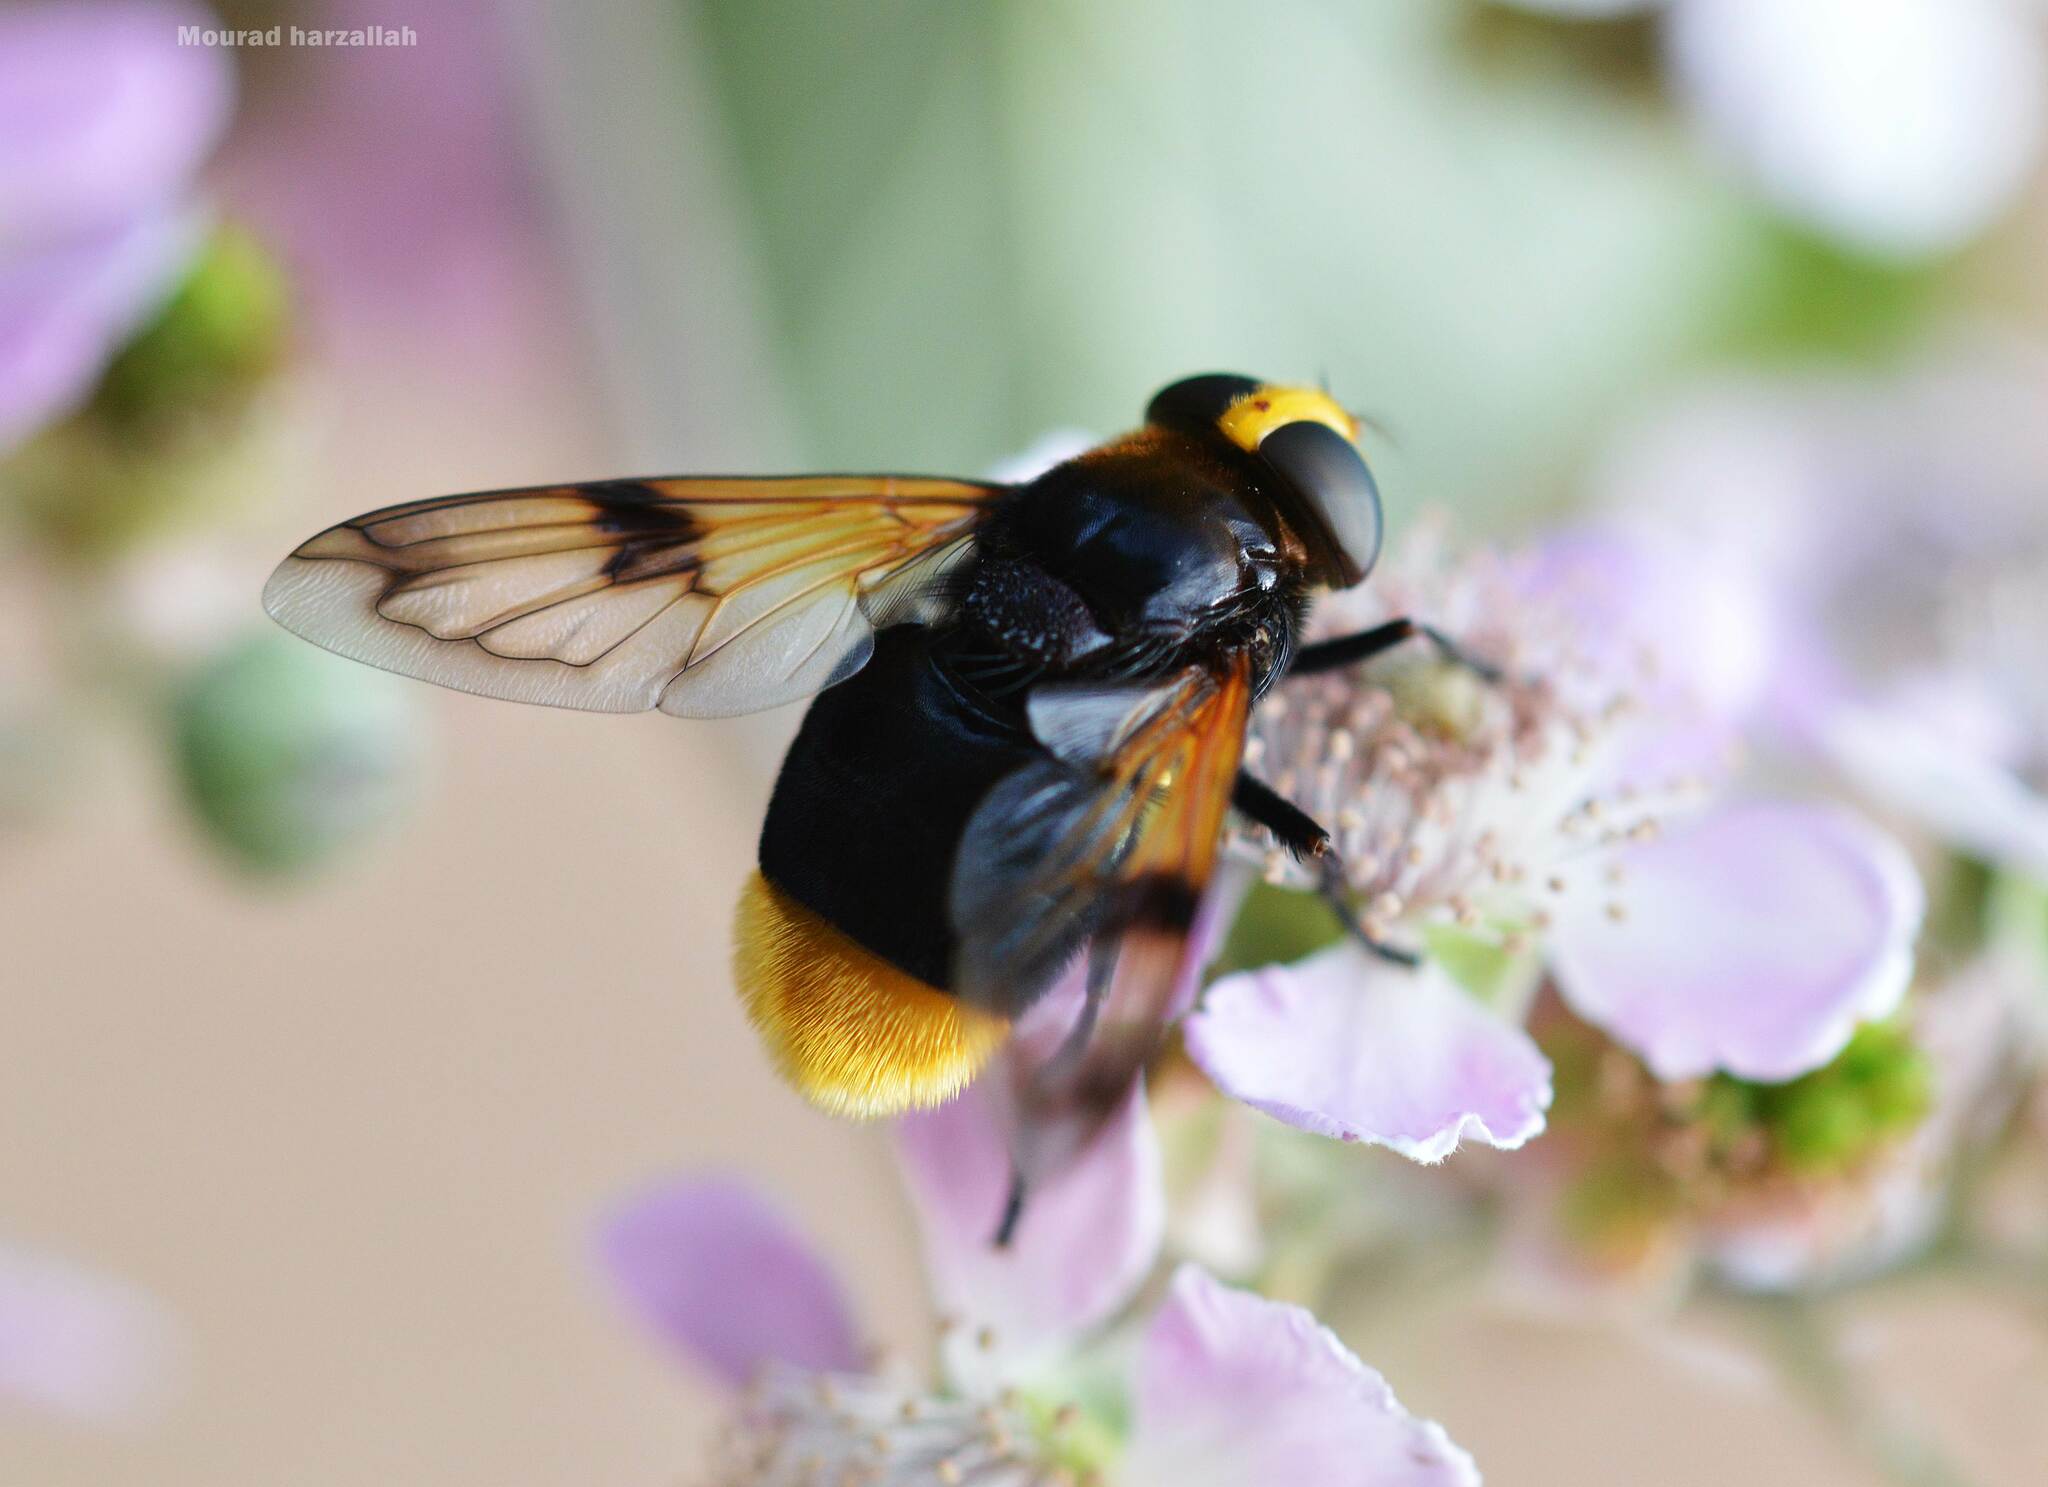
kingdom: Animalia
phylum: Arthropoda
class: Insecta
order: Diptera
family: Syrphidae
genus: Volucella
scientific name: Volucella liquida
